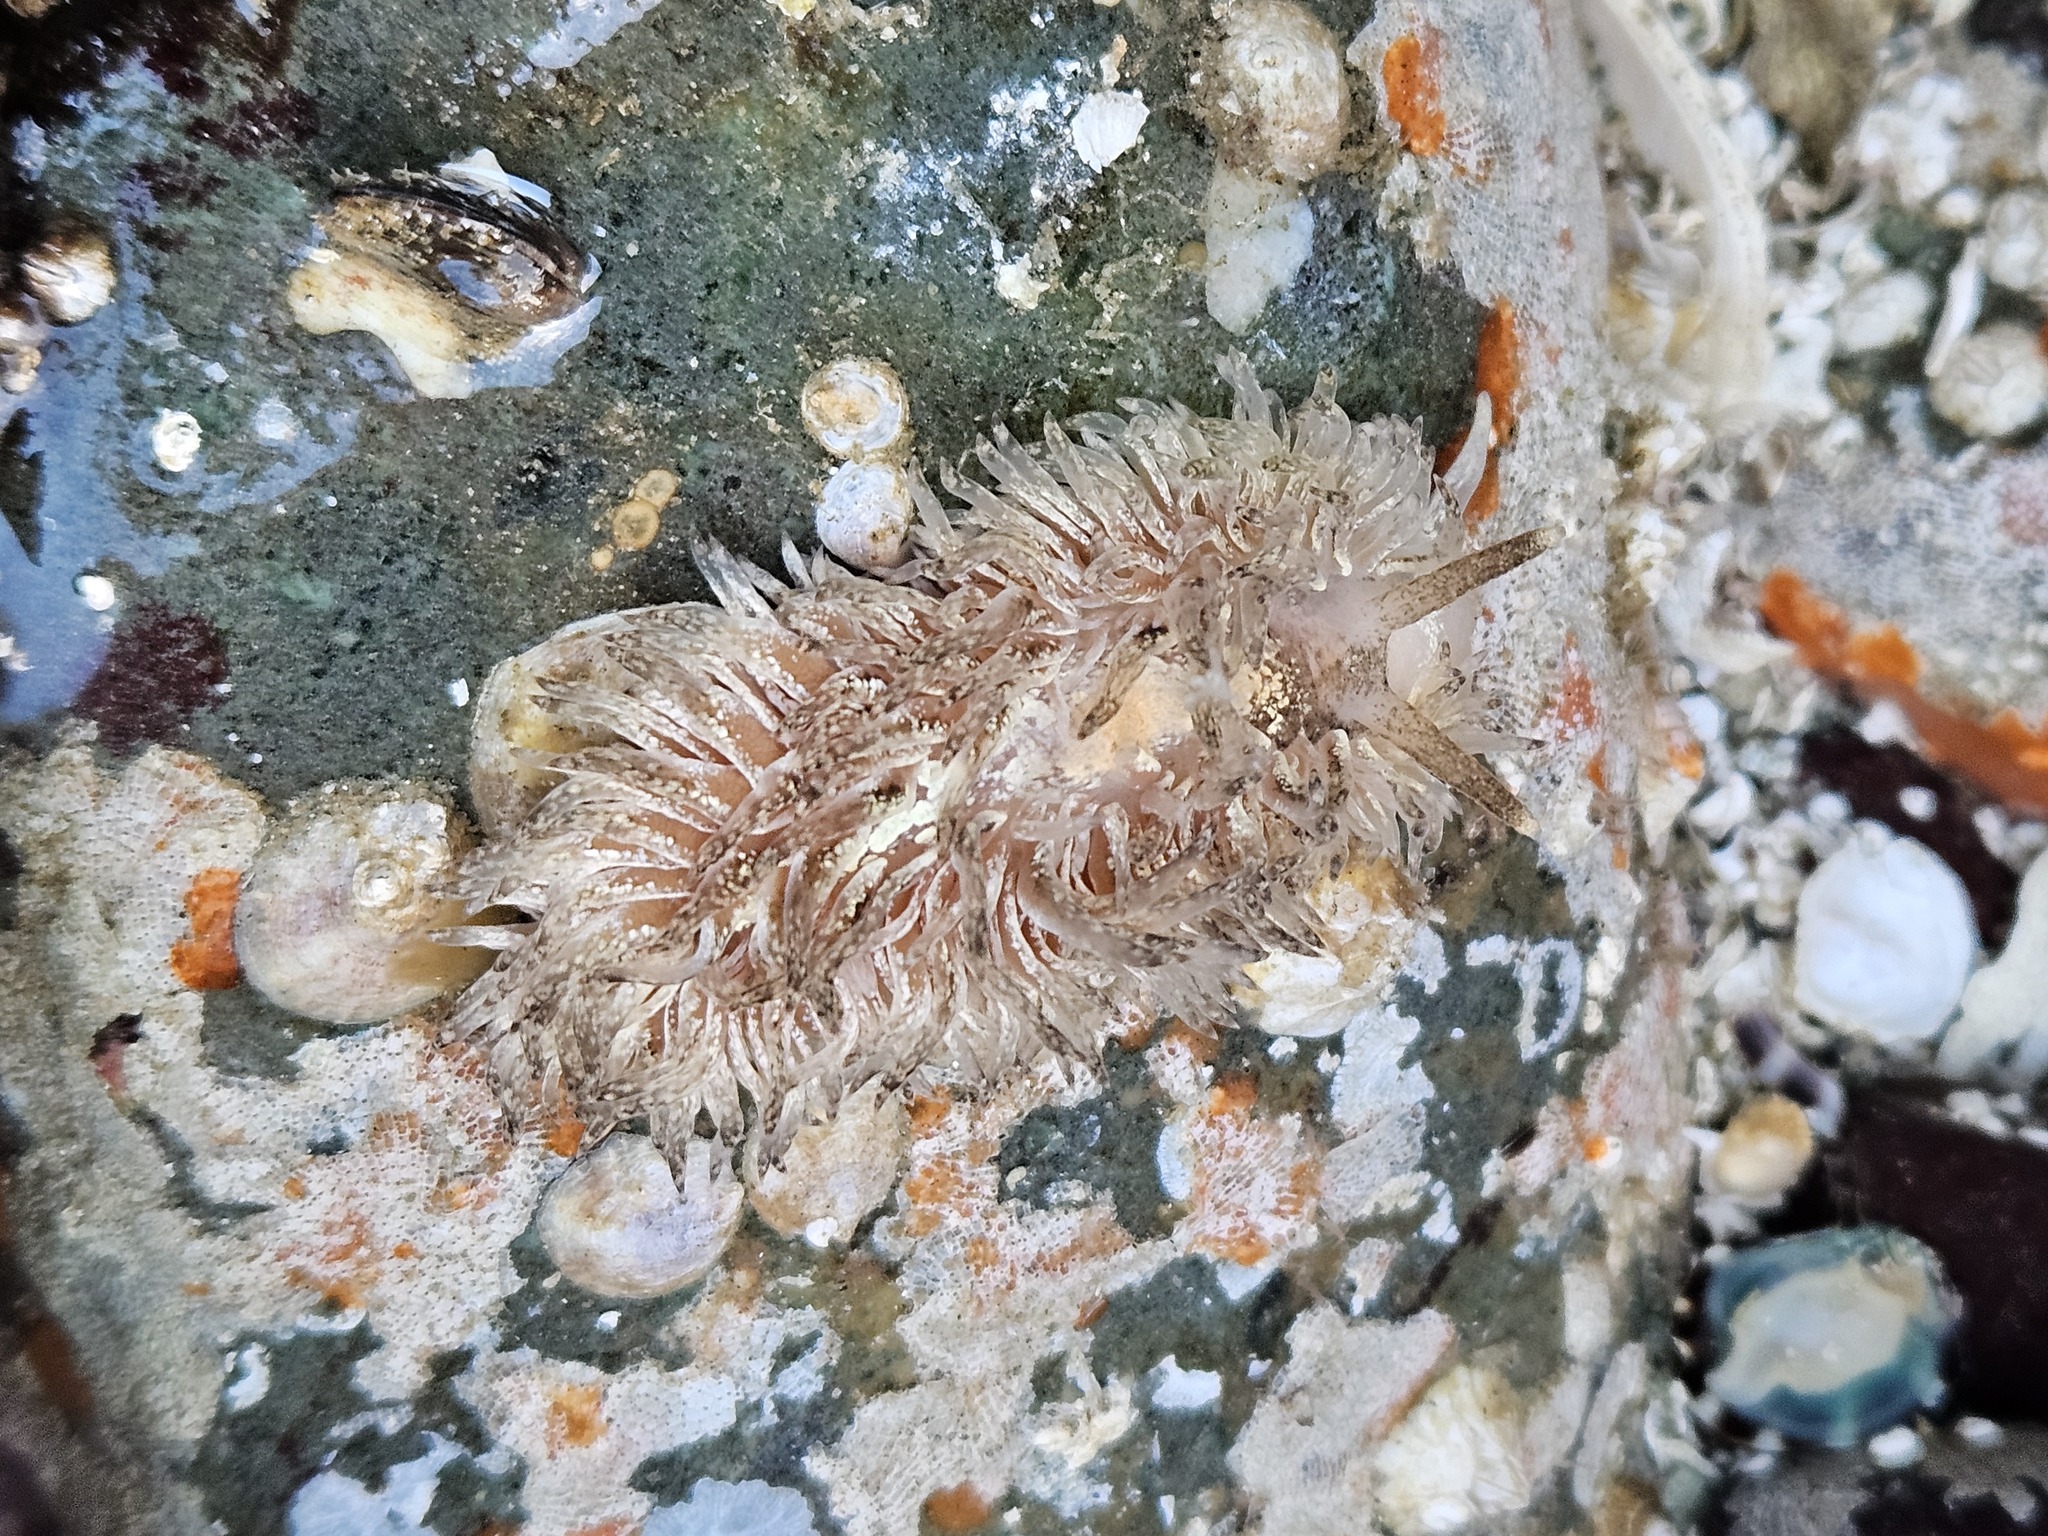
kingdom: Animalia
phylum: Mollusca
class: Gastropoda
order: Nudibranchia
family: Aeolidiidae
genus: Aeolidia
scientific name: Aeolidia loui
